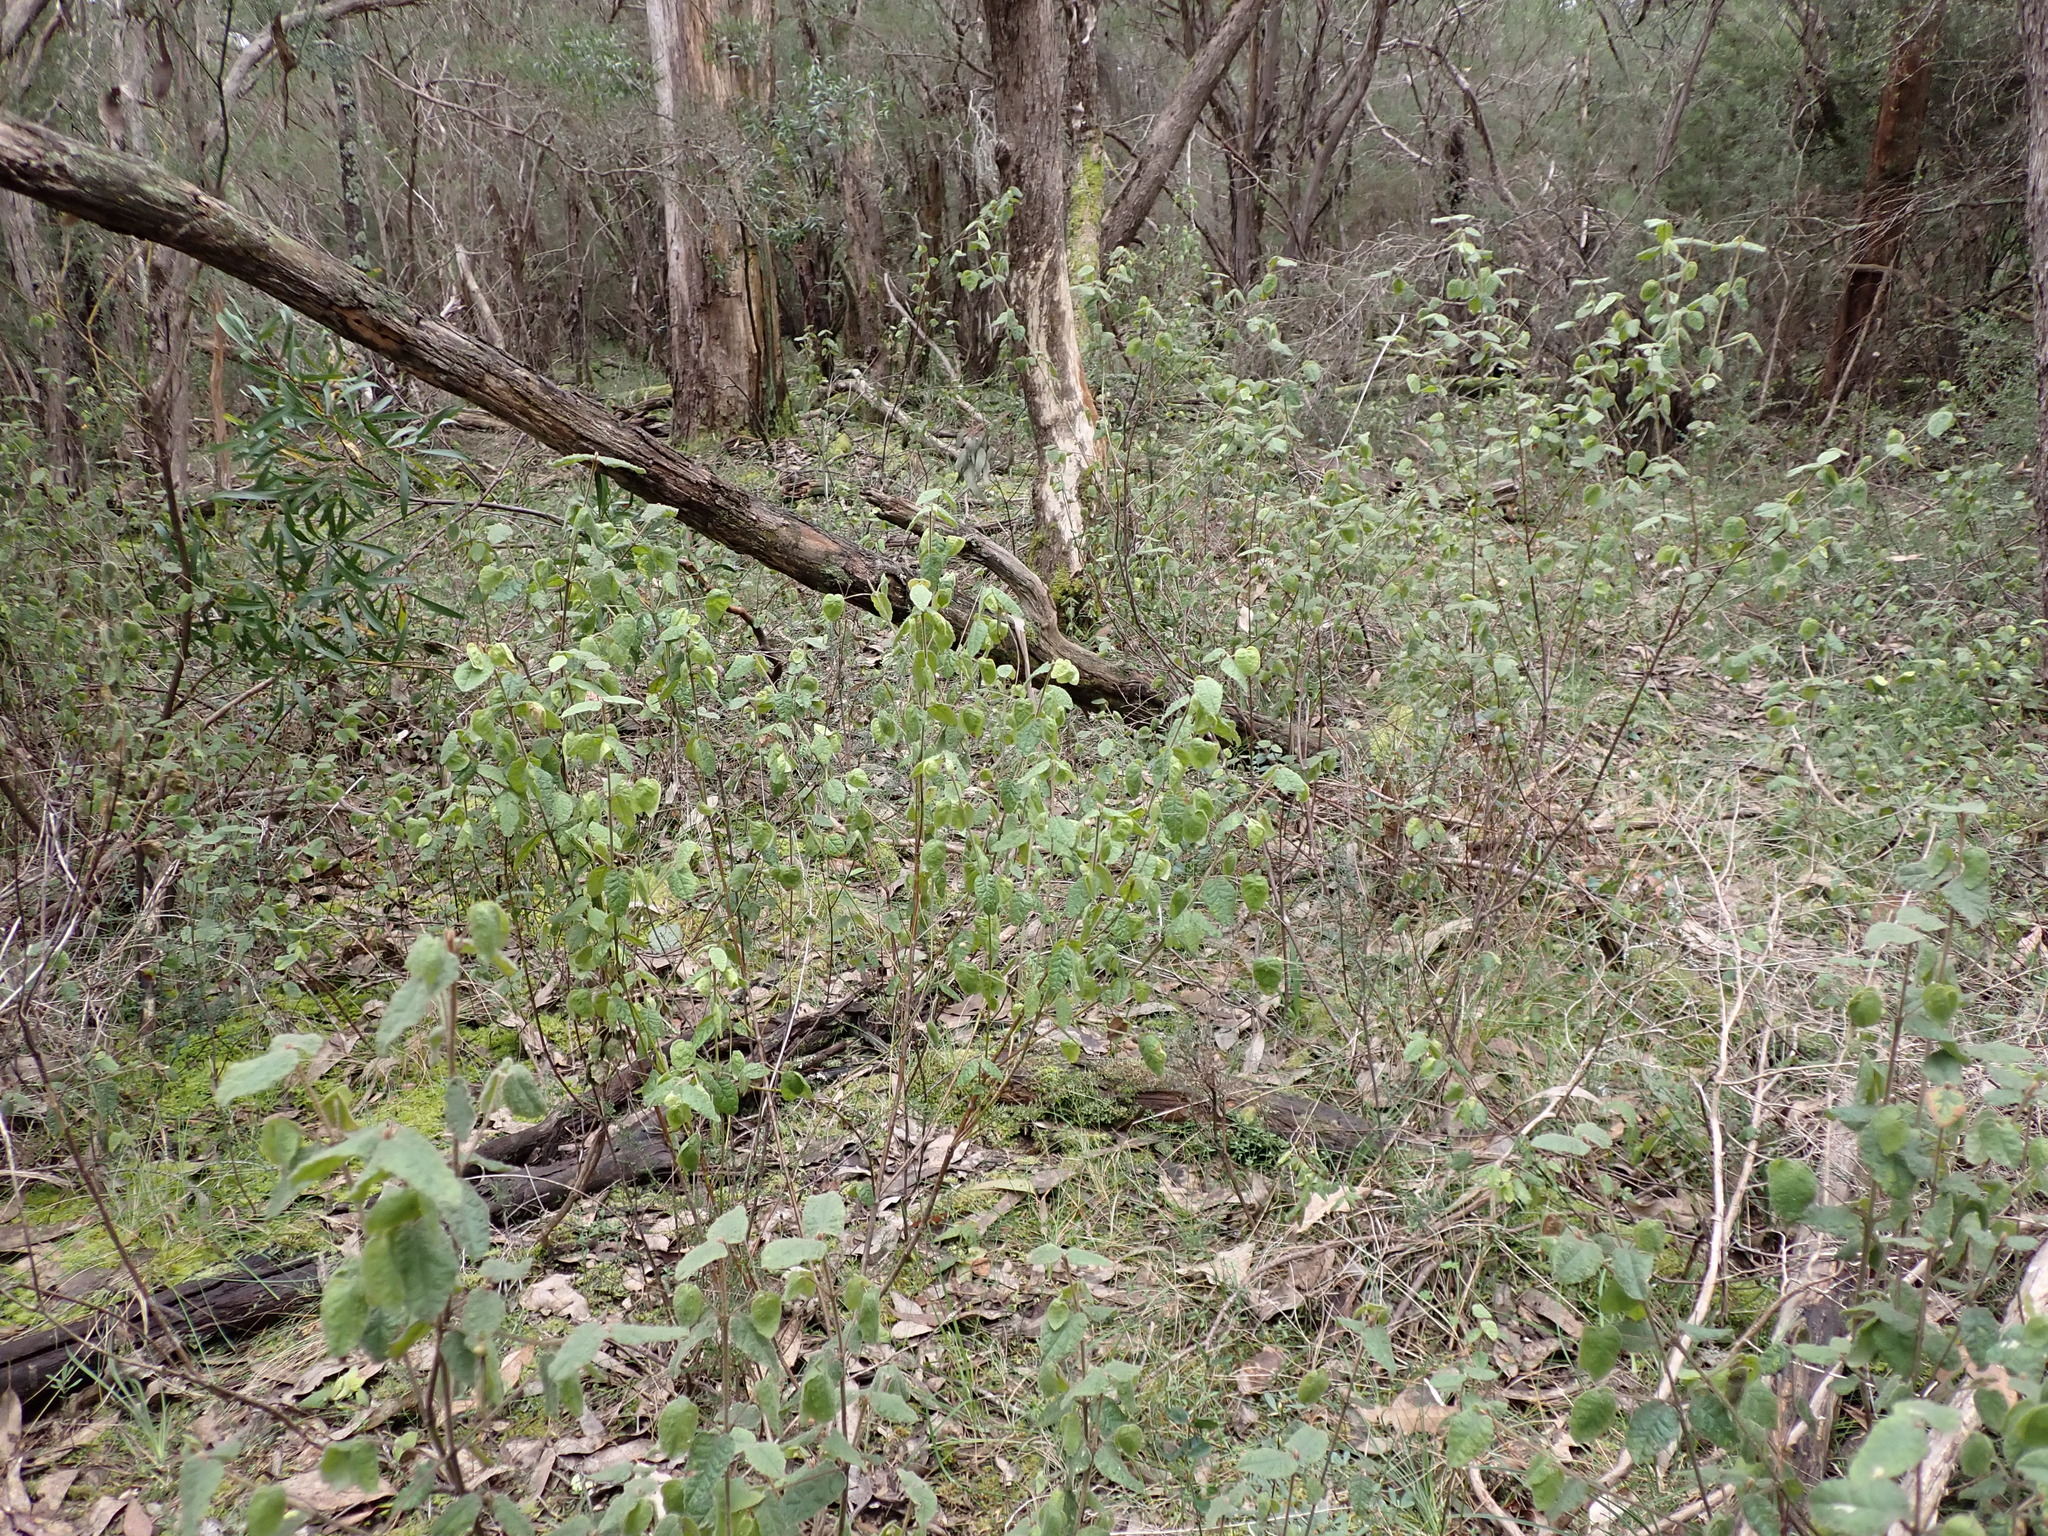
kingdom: Plantae
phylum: Tracheophyta
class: Magnoliopsida
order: Sapindales
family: Rutaceae
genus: Correa
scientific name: Correa reflexa
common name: Common correa
